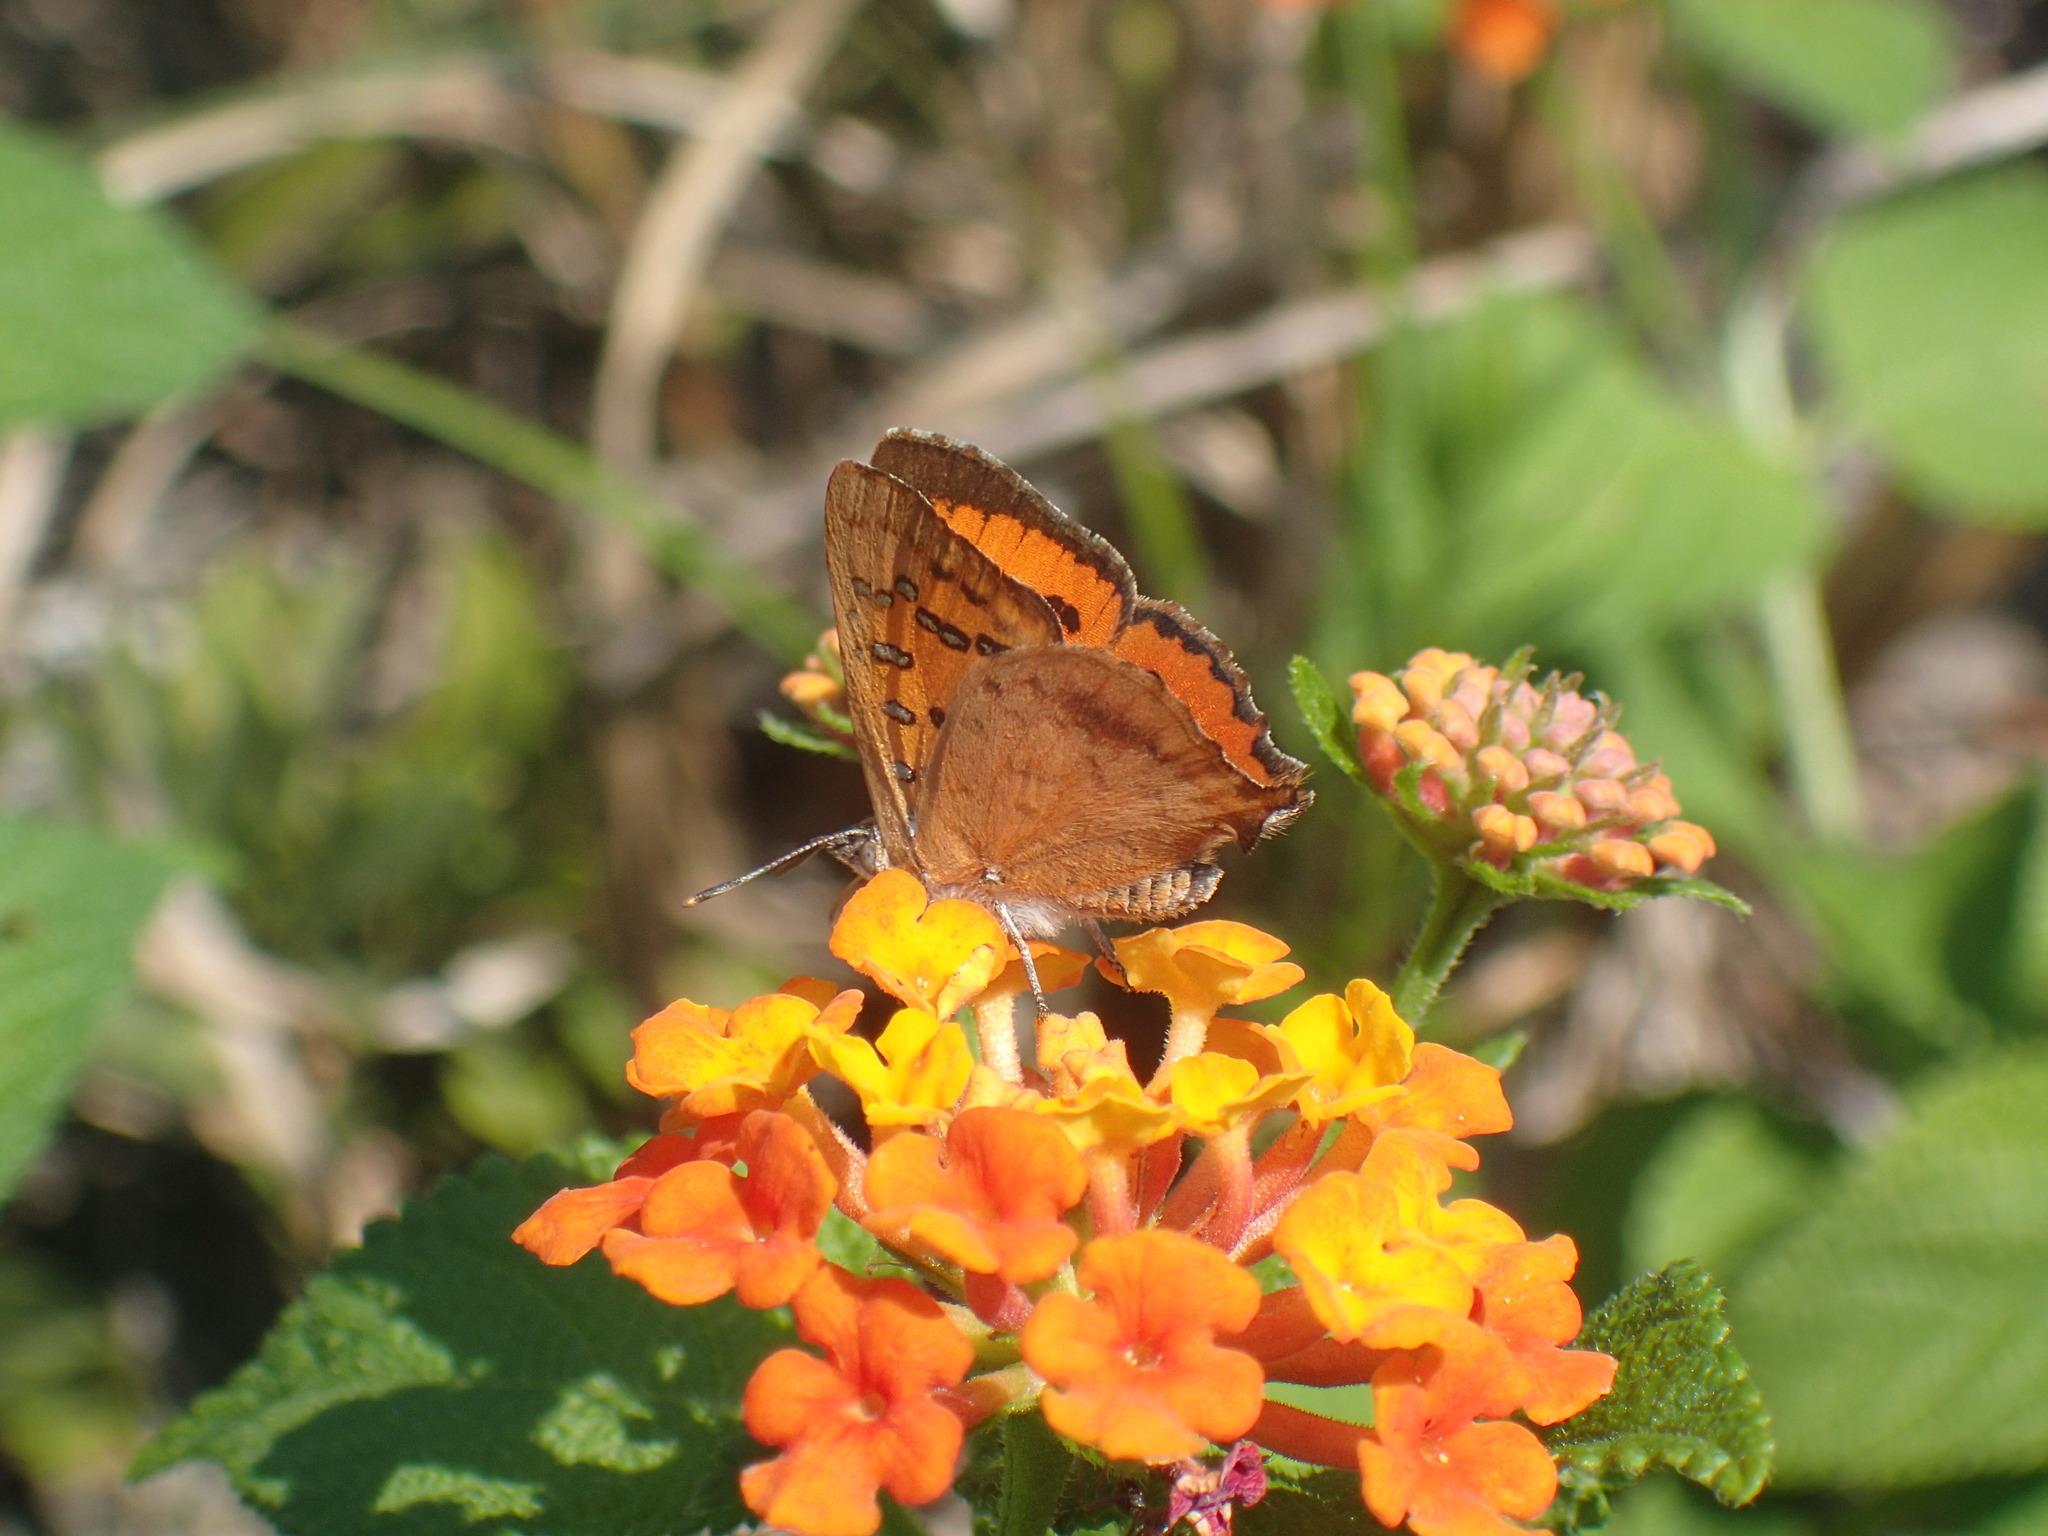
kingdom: Animalia
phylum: Arthropoda
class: Insecta
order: Lepidoptera
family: Lycaenidae
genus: Zeritis
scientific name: Zeritis chrysaor
